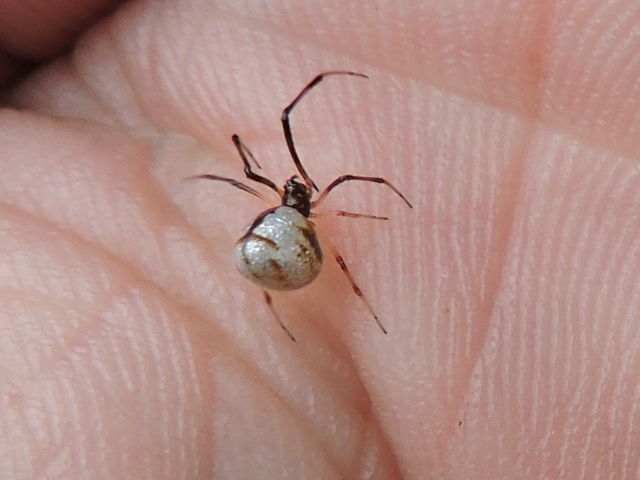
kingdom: Animalia
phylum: Arthropoda
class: Arachnida
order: Araneae
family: Theridiidae
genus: Argyrodes
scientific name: Argyrodes elevatus
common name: Cobweb spiders
